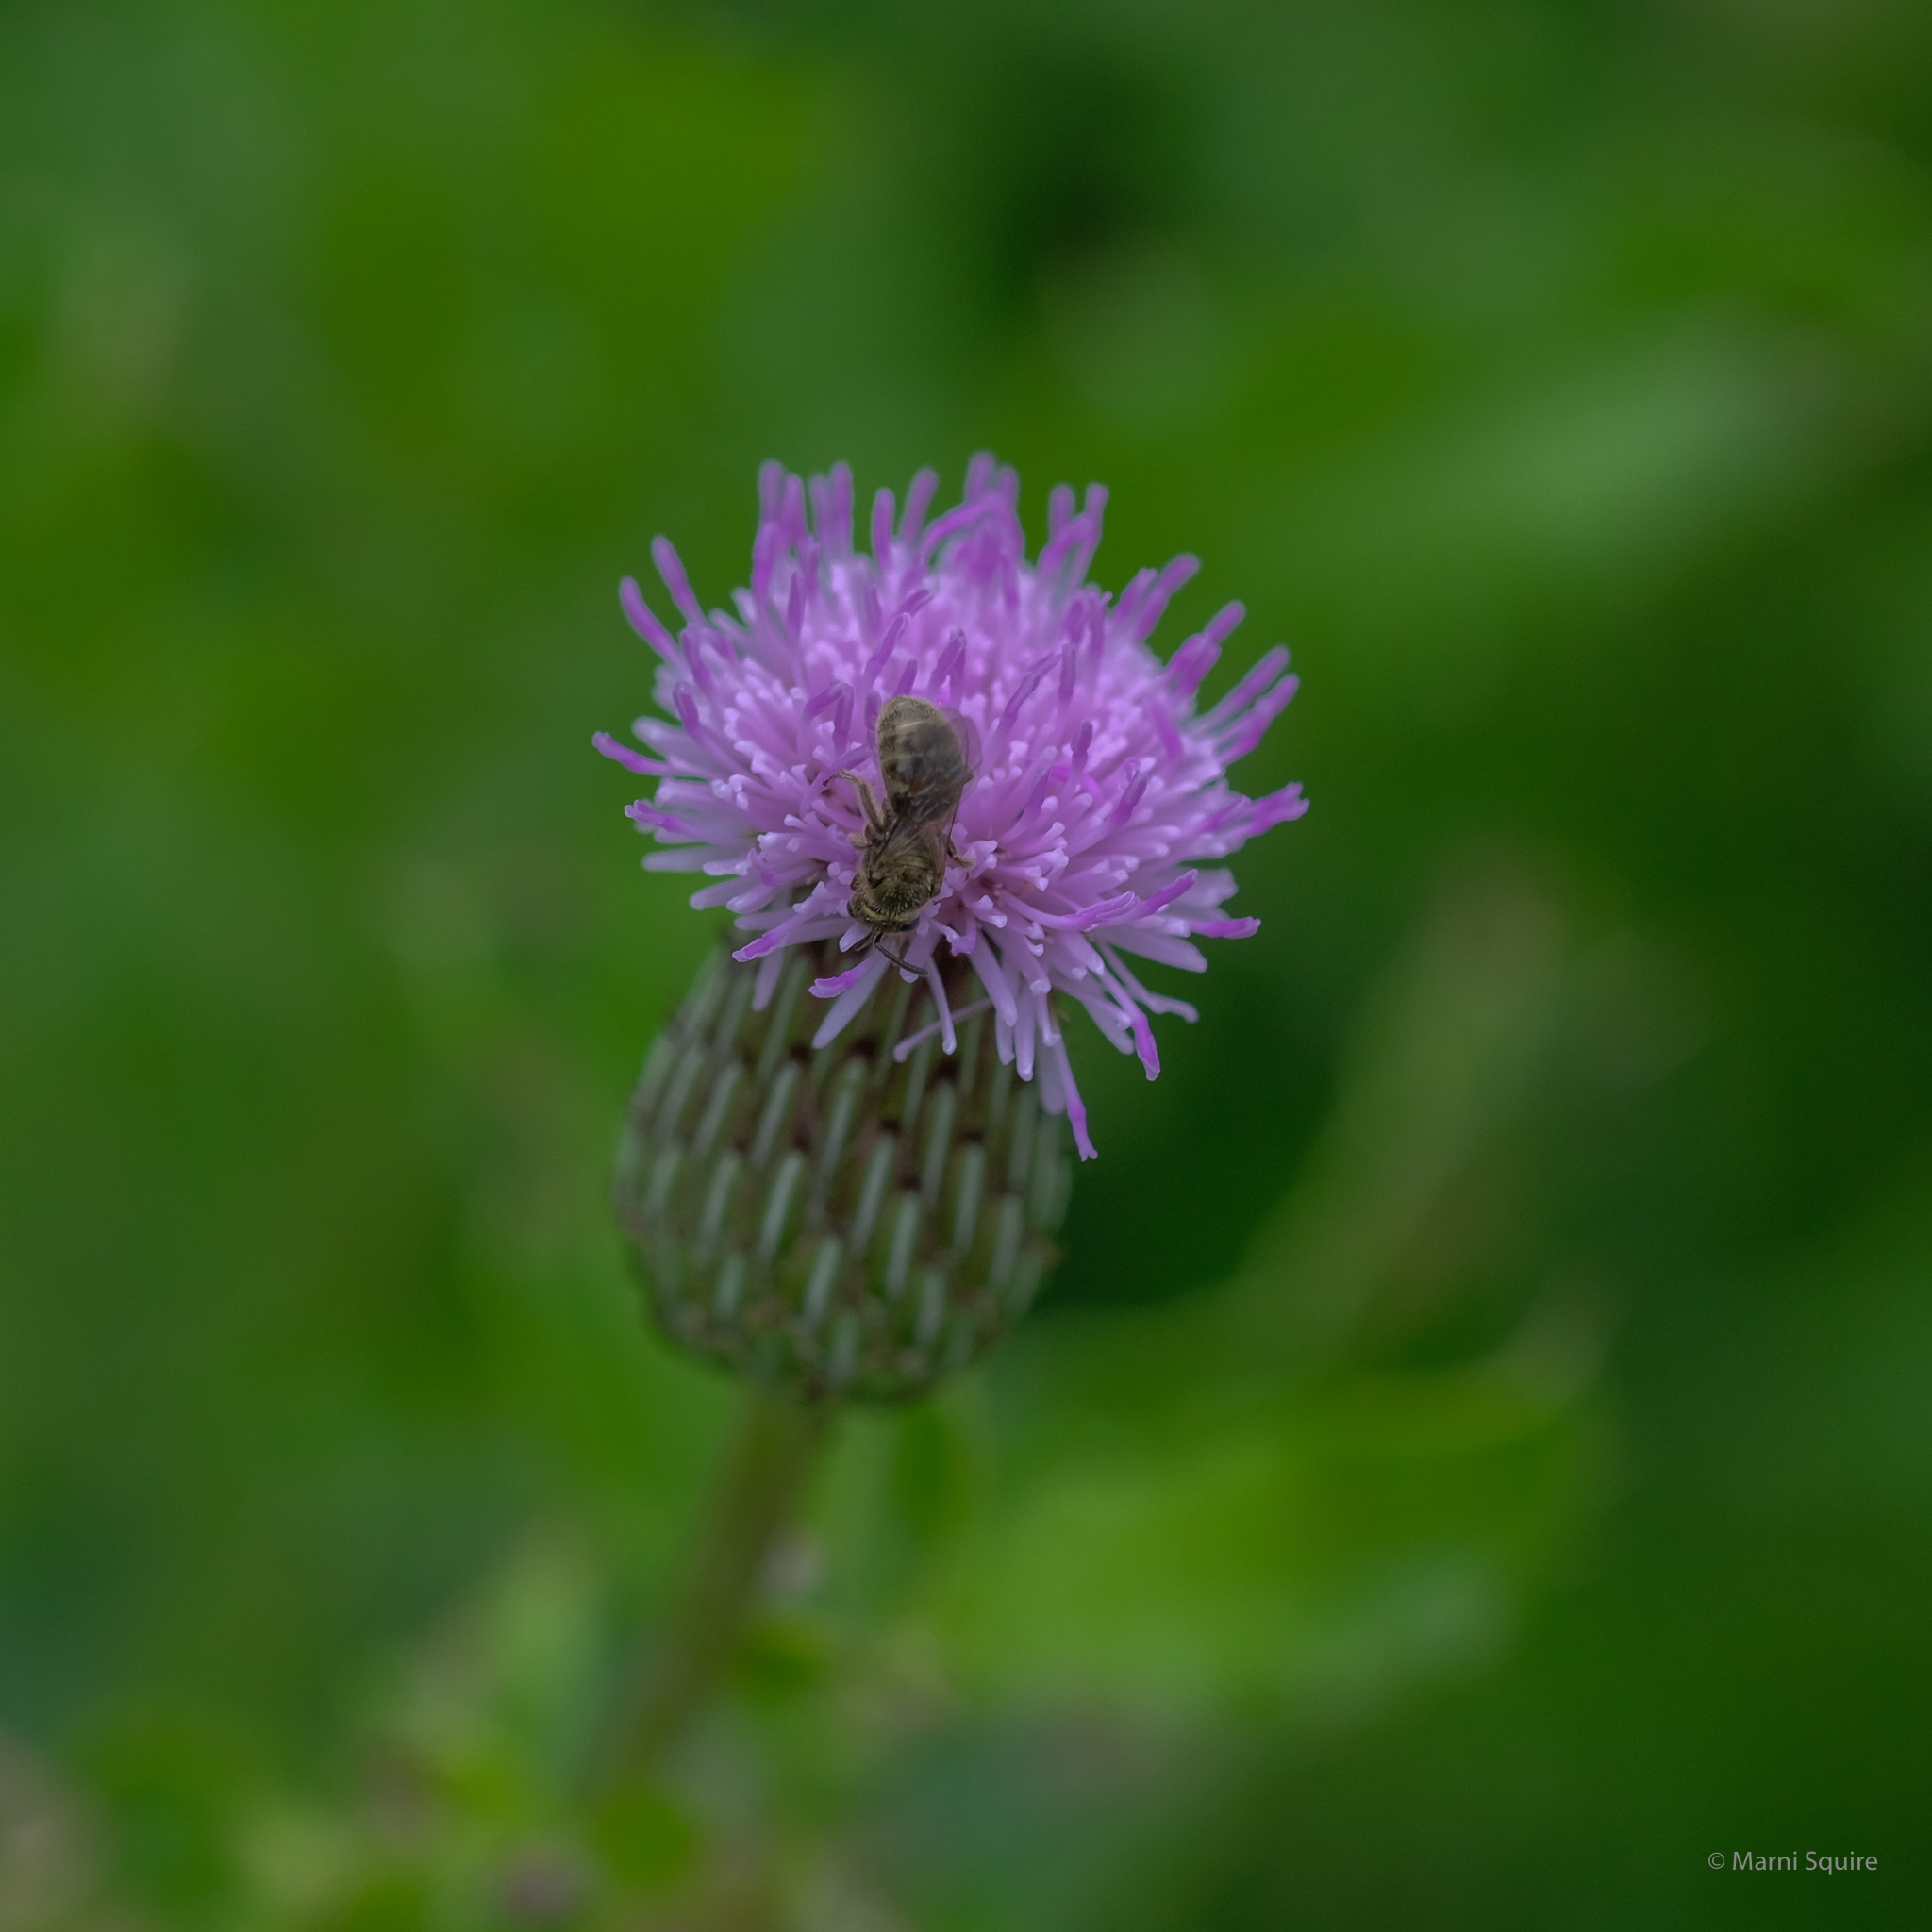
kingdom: Plantae
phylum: Tracheophyta
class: Magnoliopsida
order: Asterales
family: Asteraceae
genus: Cirsium
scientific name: Cirsium arvense
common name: Creeping thistle
